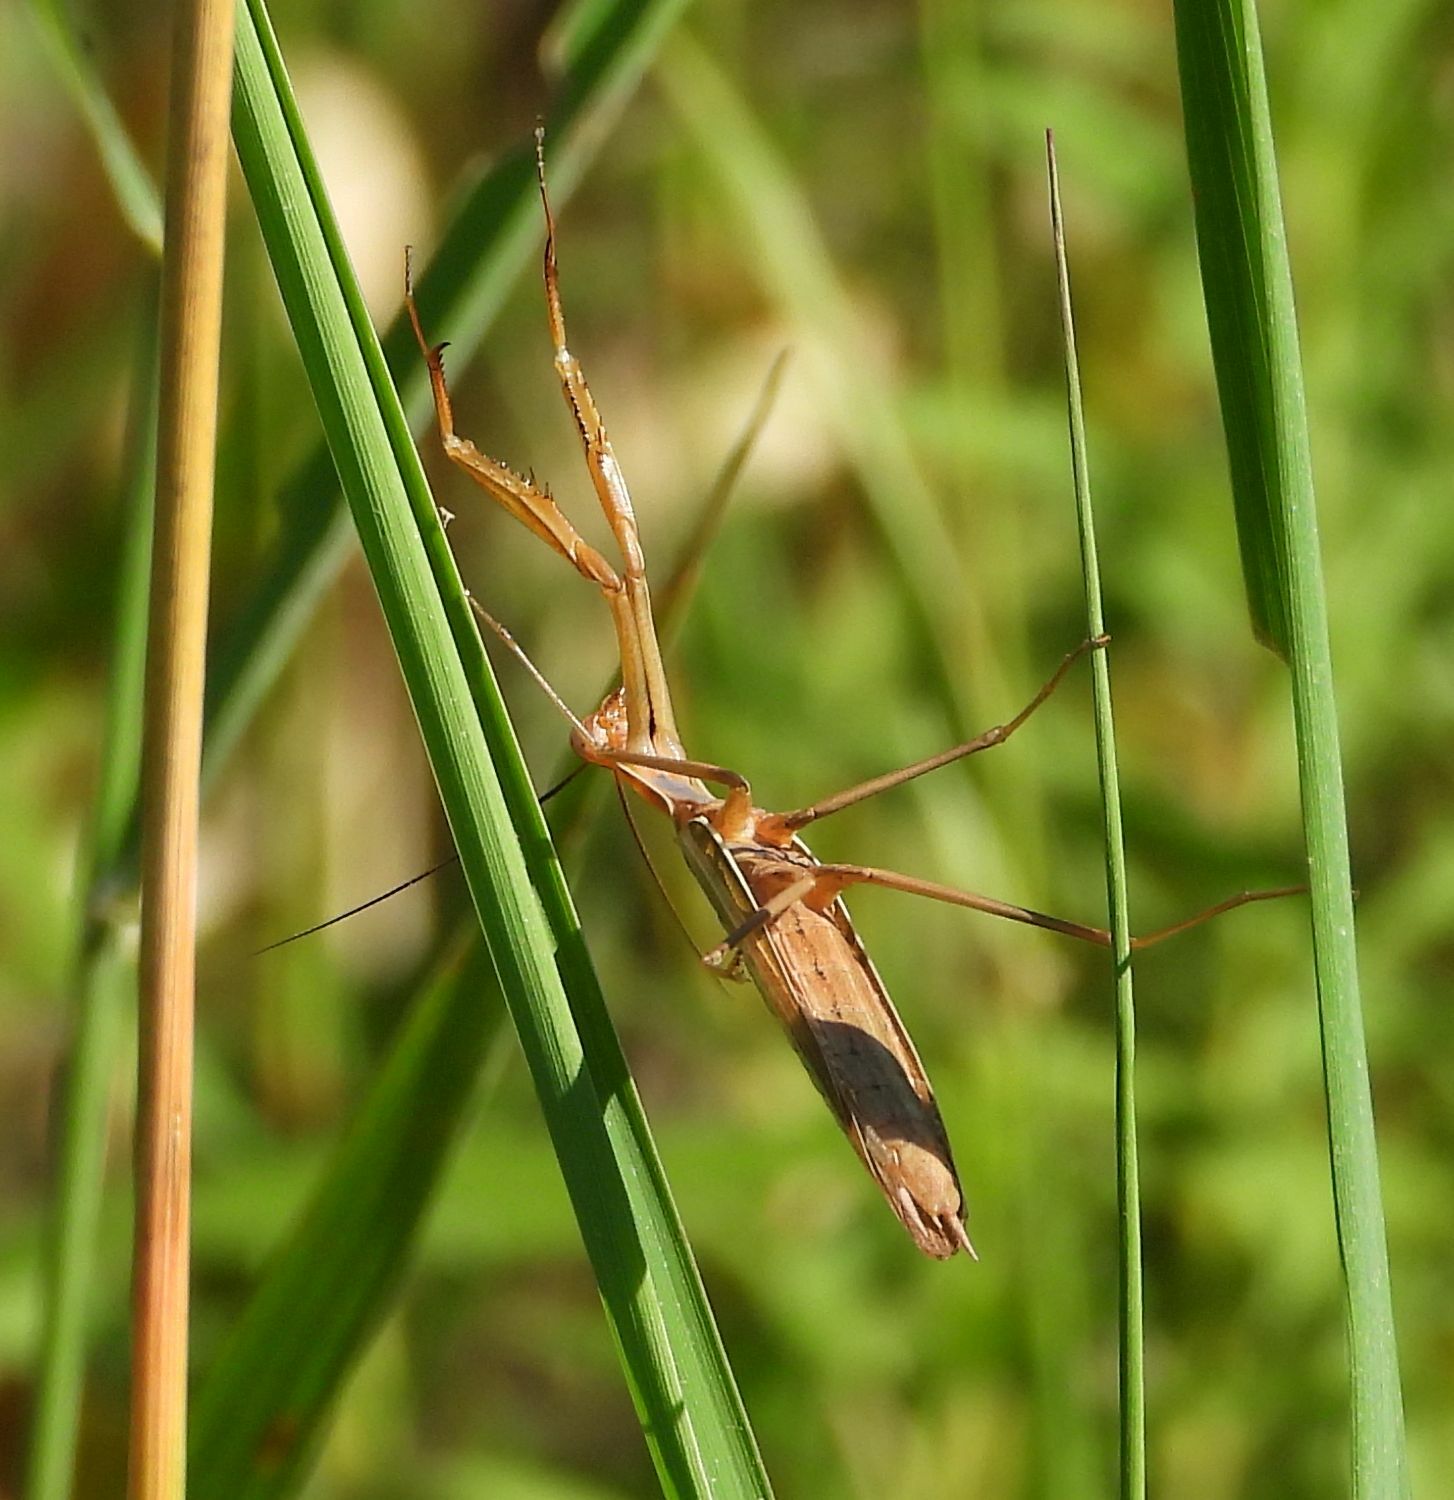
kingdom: Animalia
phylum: Arthropoda
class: Insecta
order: Mantodea
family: Mantidae
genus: Mantis
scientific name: Mantis religiosa
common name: Praying mantis
